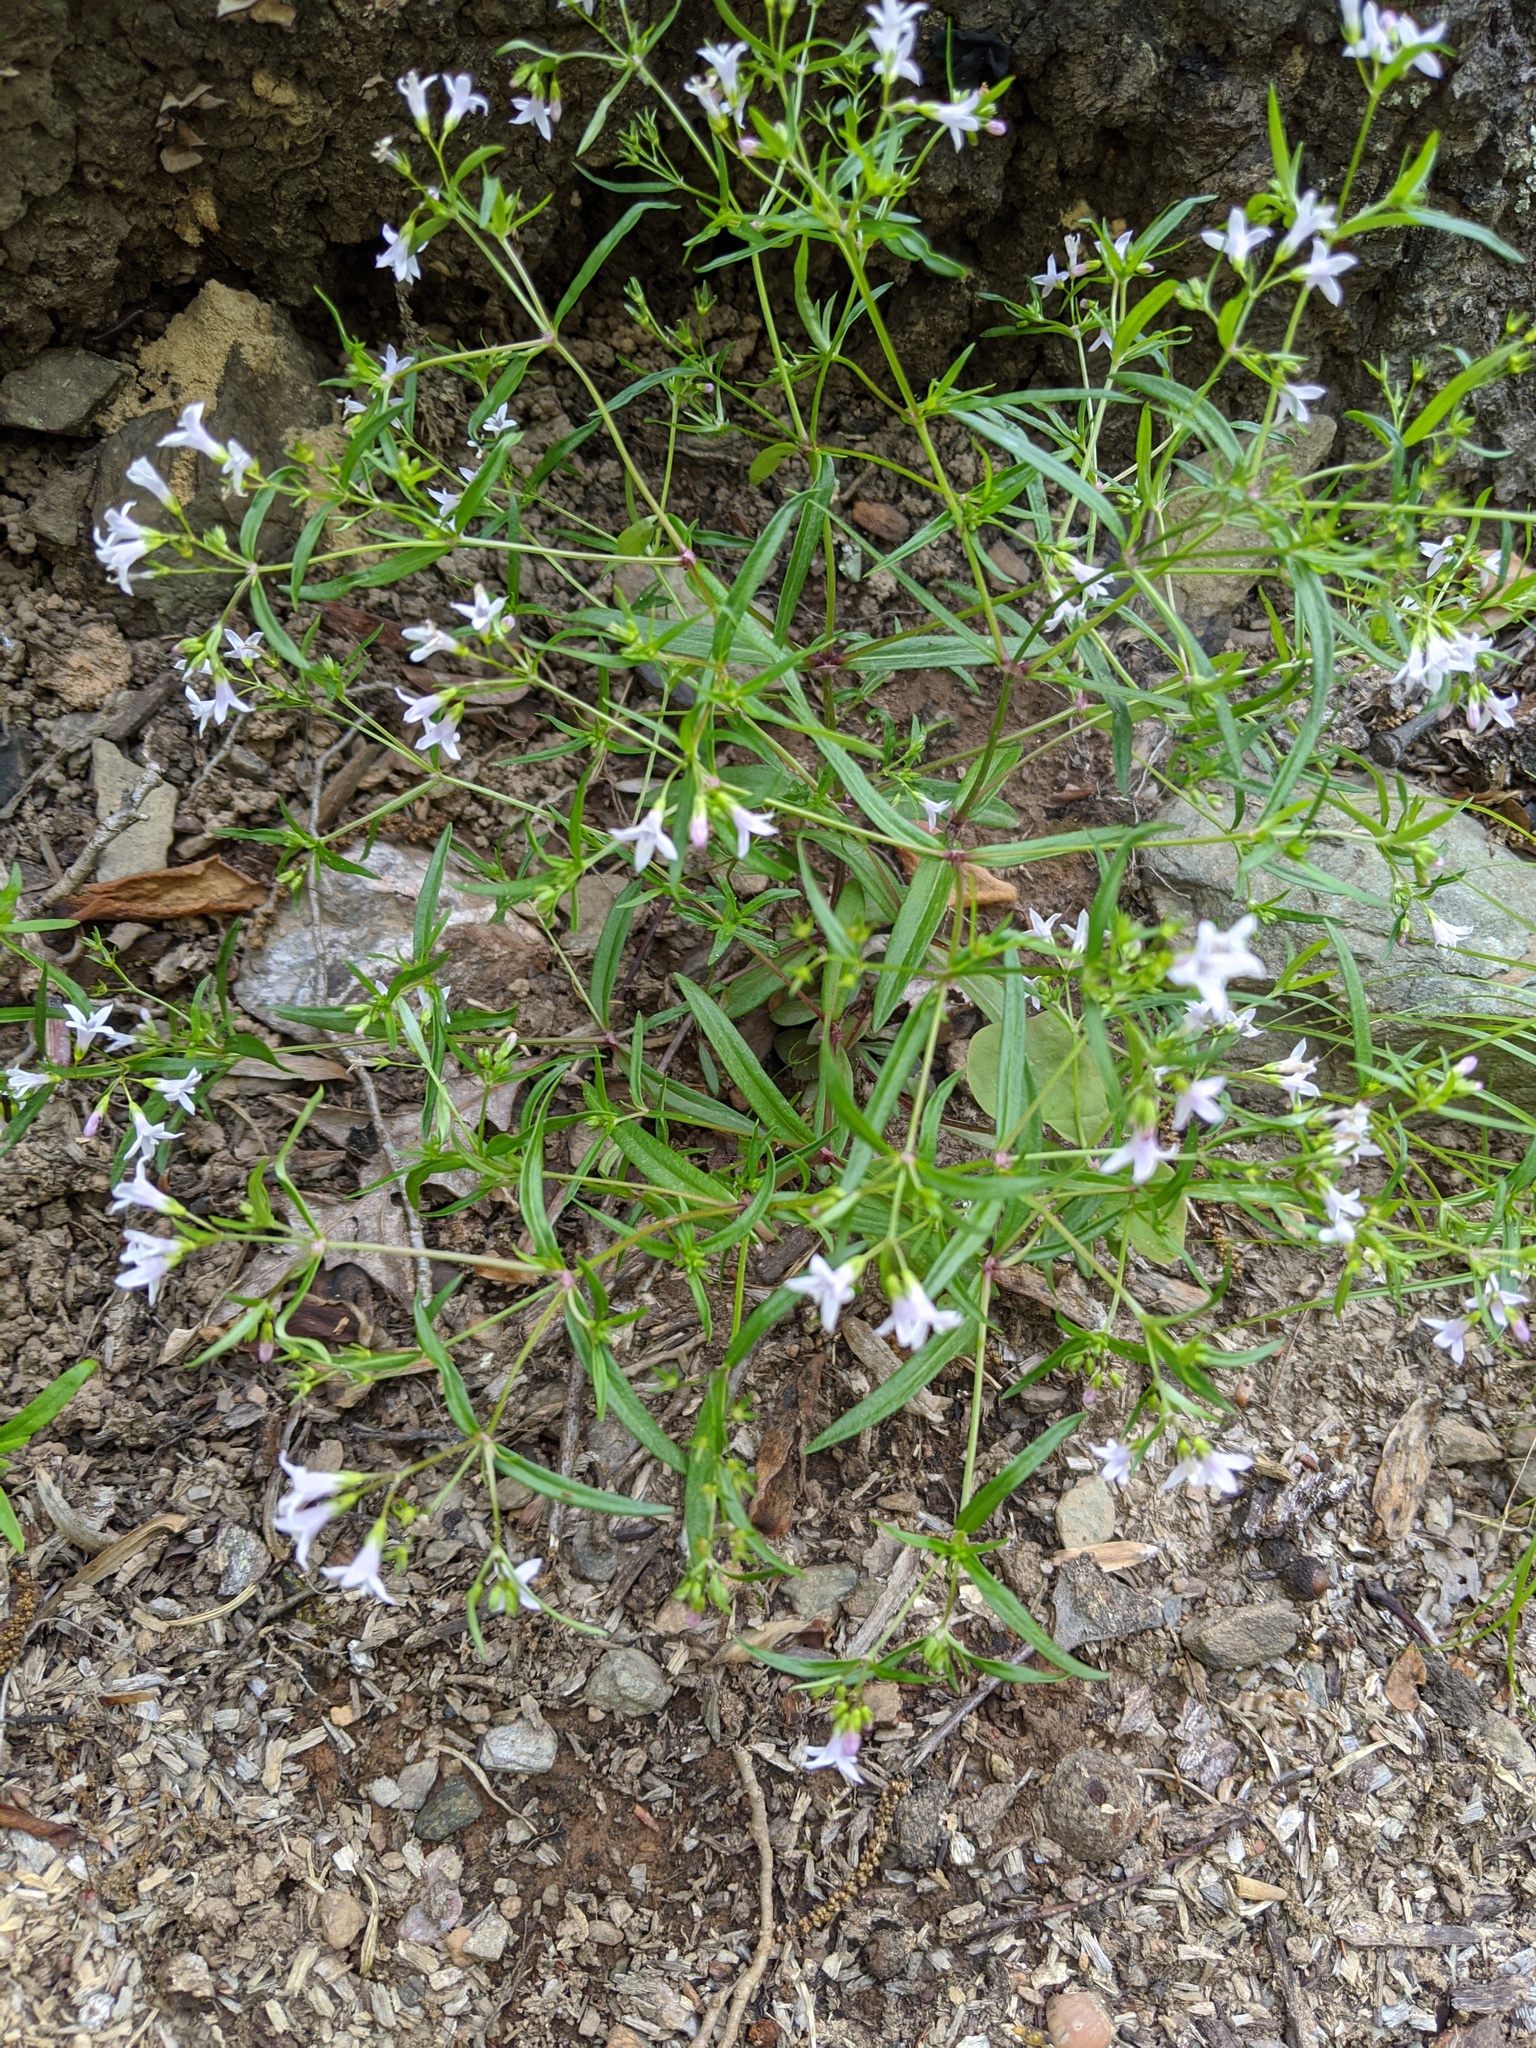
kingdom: Plantae
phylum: Tracheophyta
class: Magnoliopsida
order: Gentianales
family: Rubiaceae
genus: Houstonia
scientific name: Houstonia longifolia
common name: Long-leaved bluets
